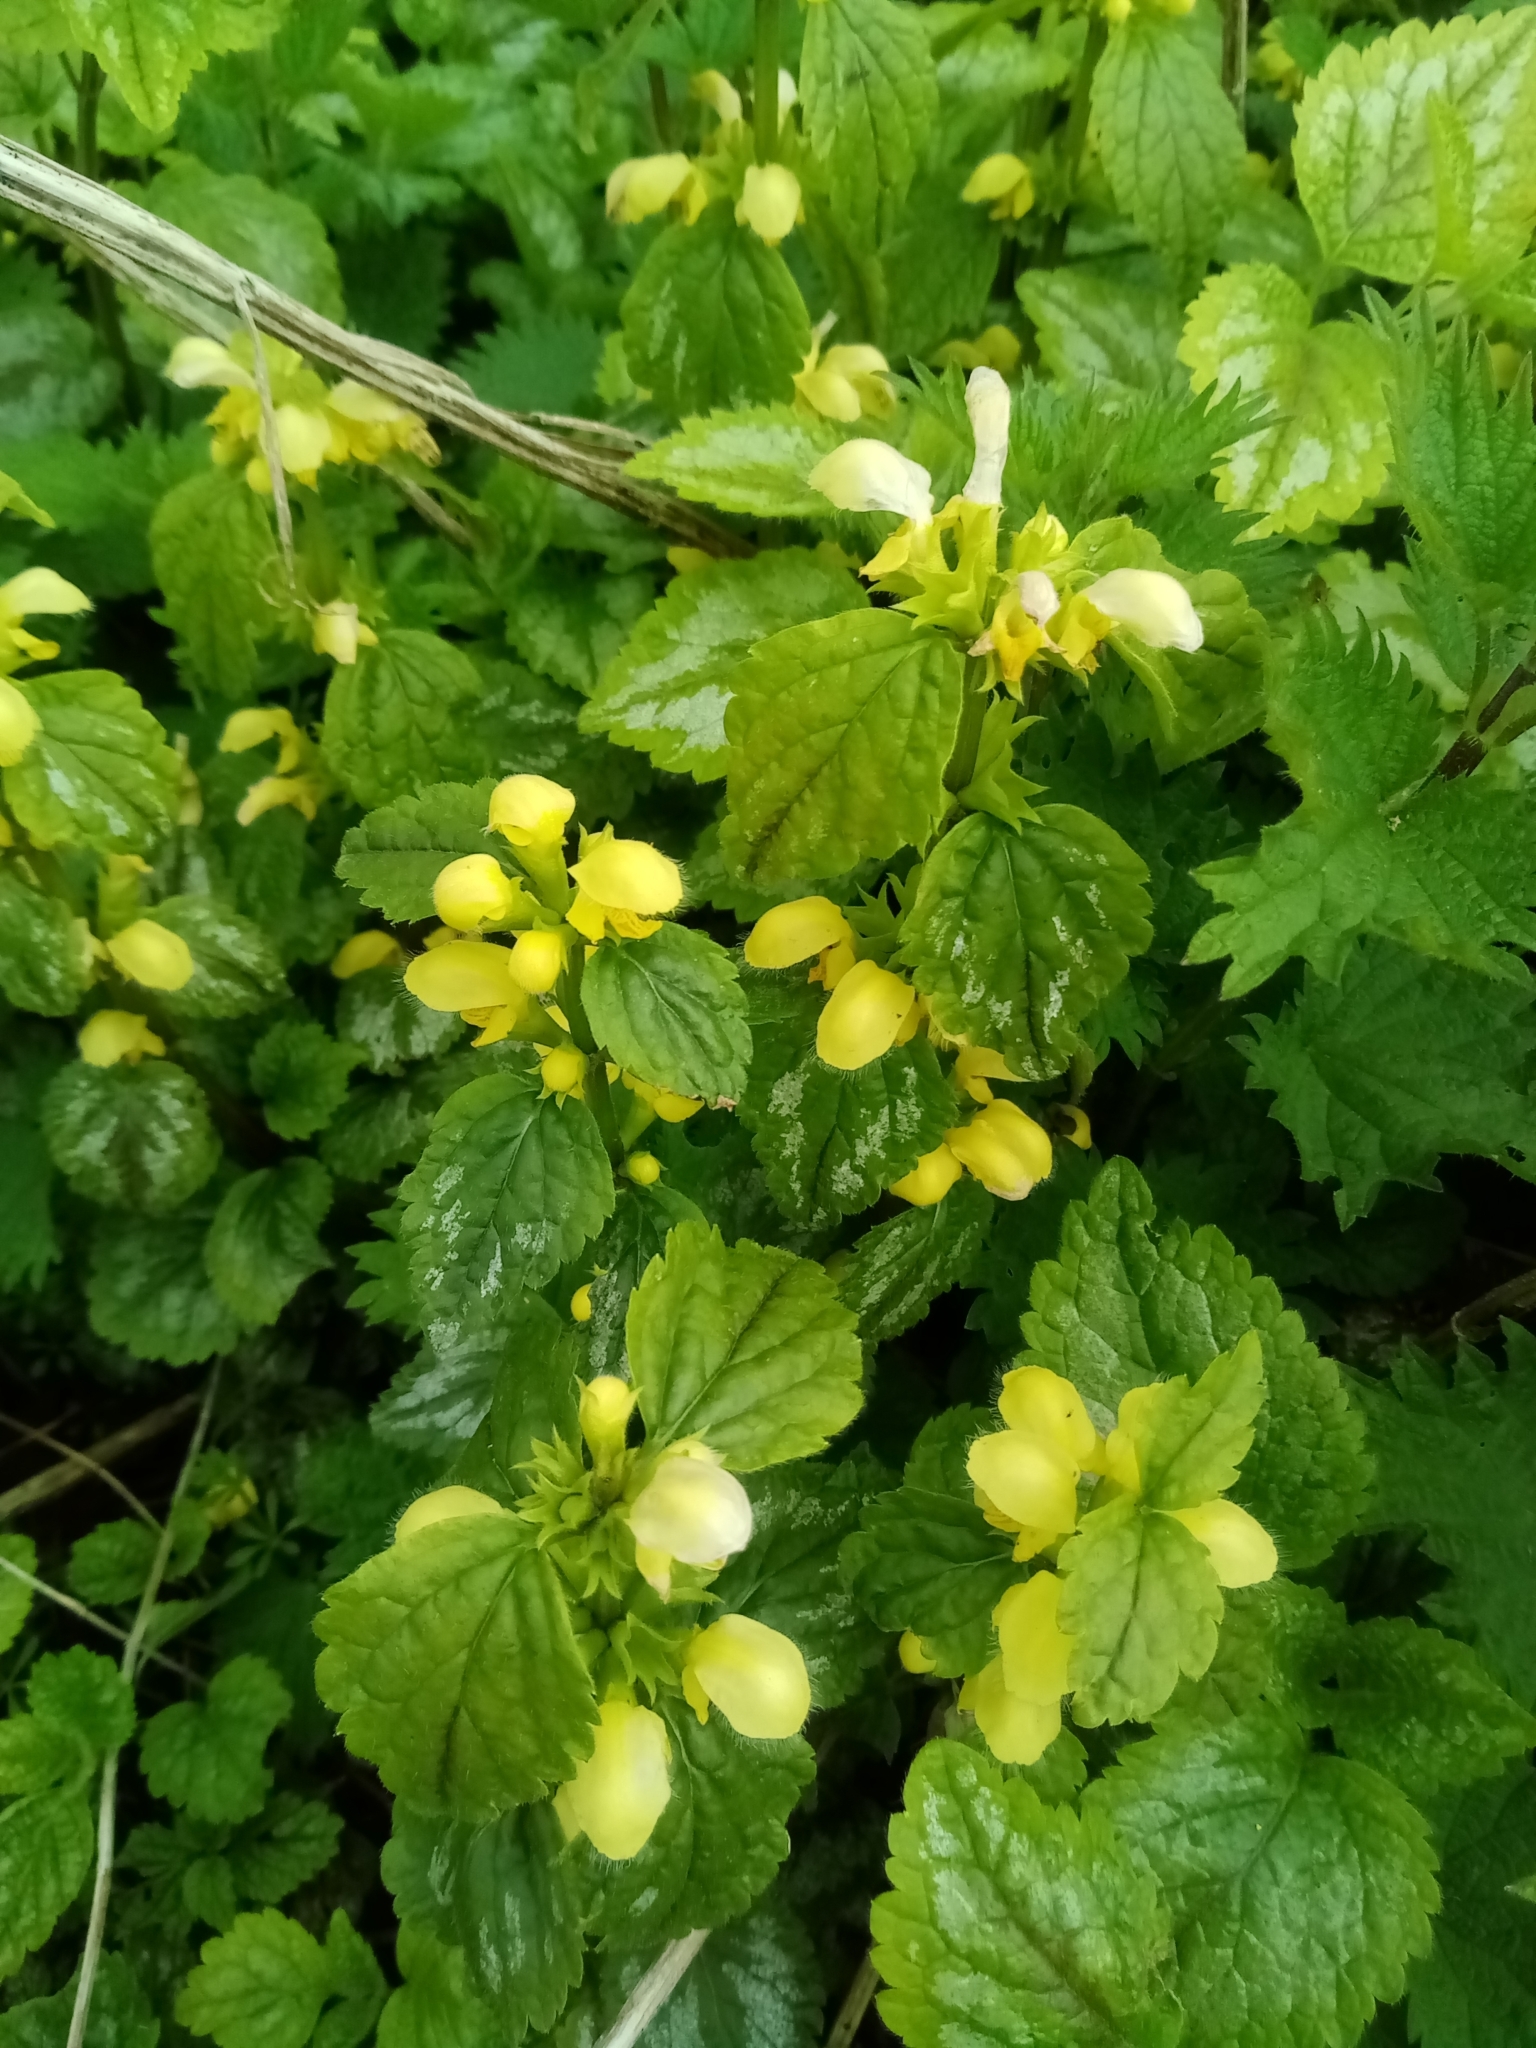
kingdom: Plantae
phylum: Tracheophyta
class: Magnoliopsida
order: Lamiales
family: Lamiaceae
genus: Lamium
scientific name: Lamium galeobdolon
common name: Yellow archangel
